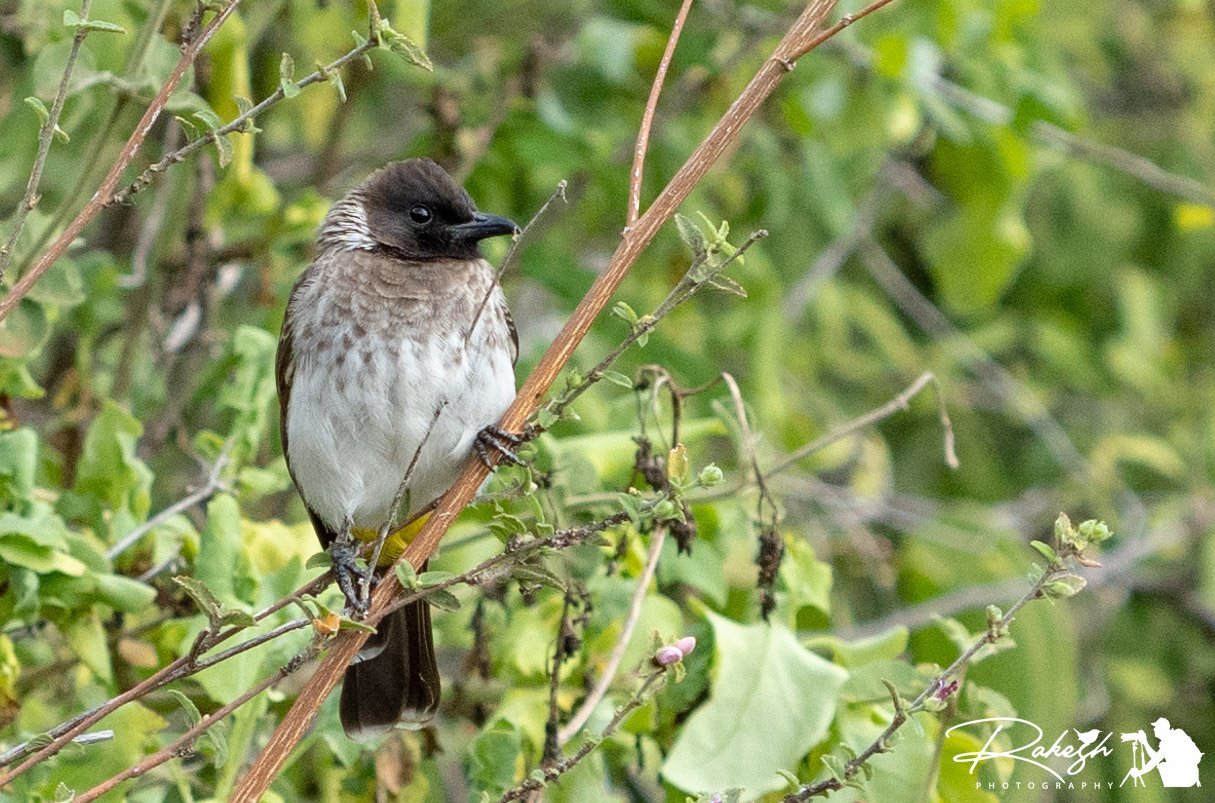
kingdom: Animalia
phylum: Chordata
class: Aves
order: Passeriformes
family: Pycnonotidae
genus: Pycnonotus
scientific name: Pycnonotus barbatus
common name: Common bulbul
